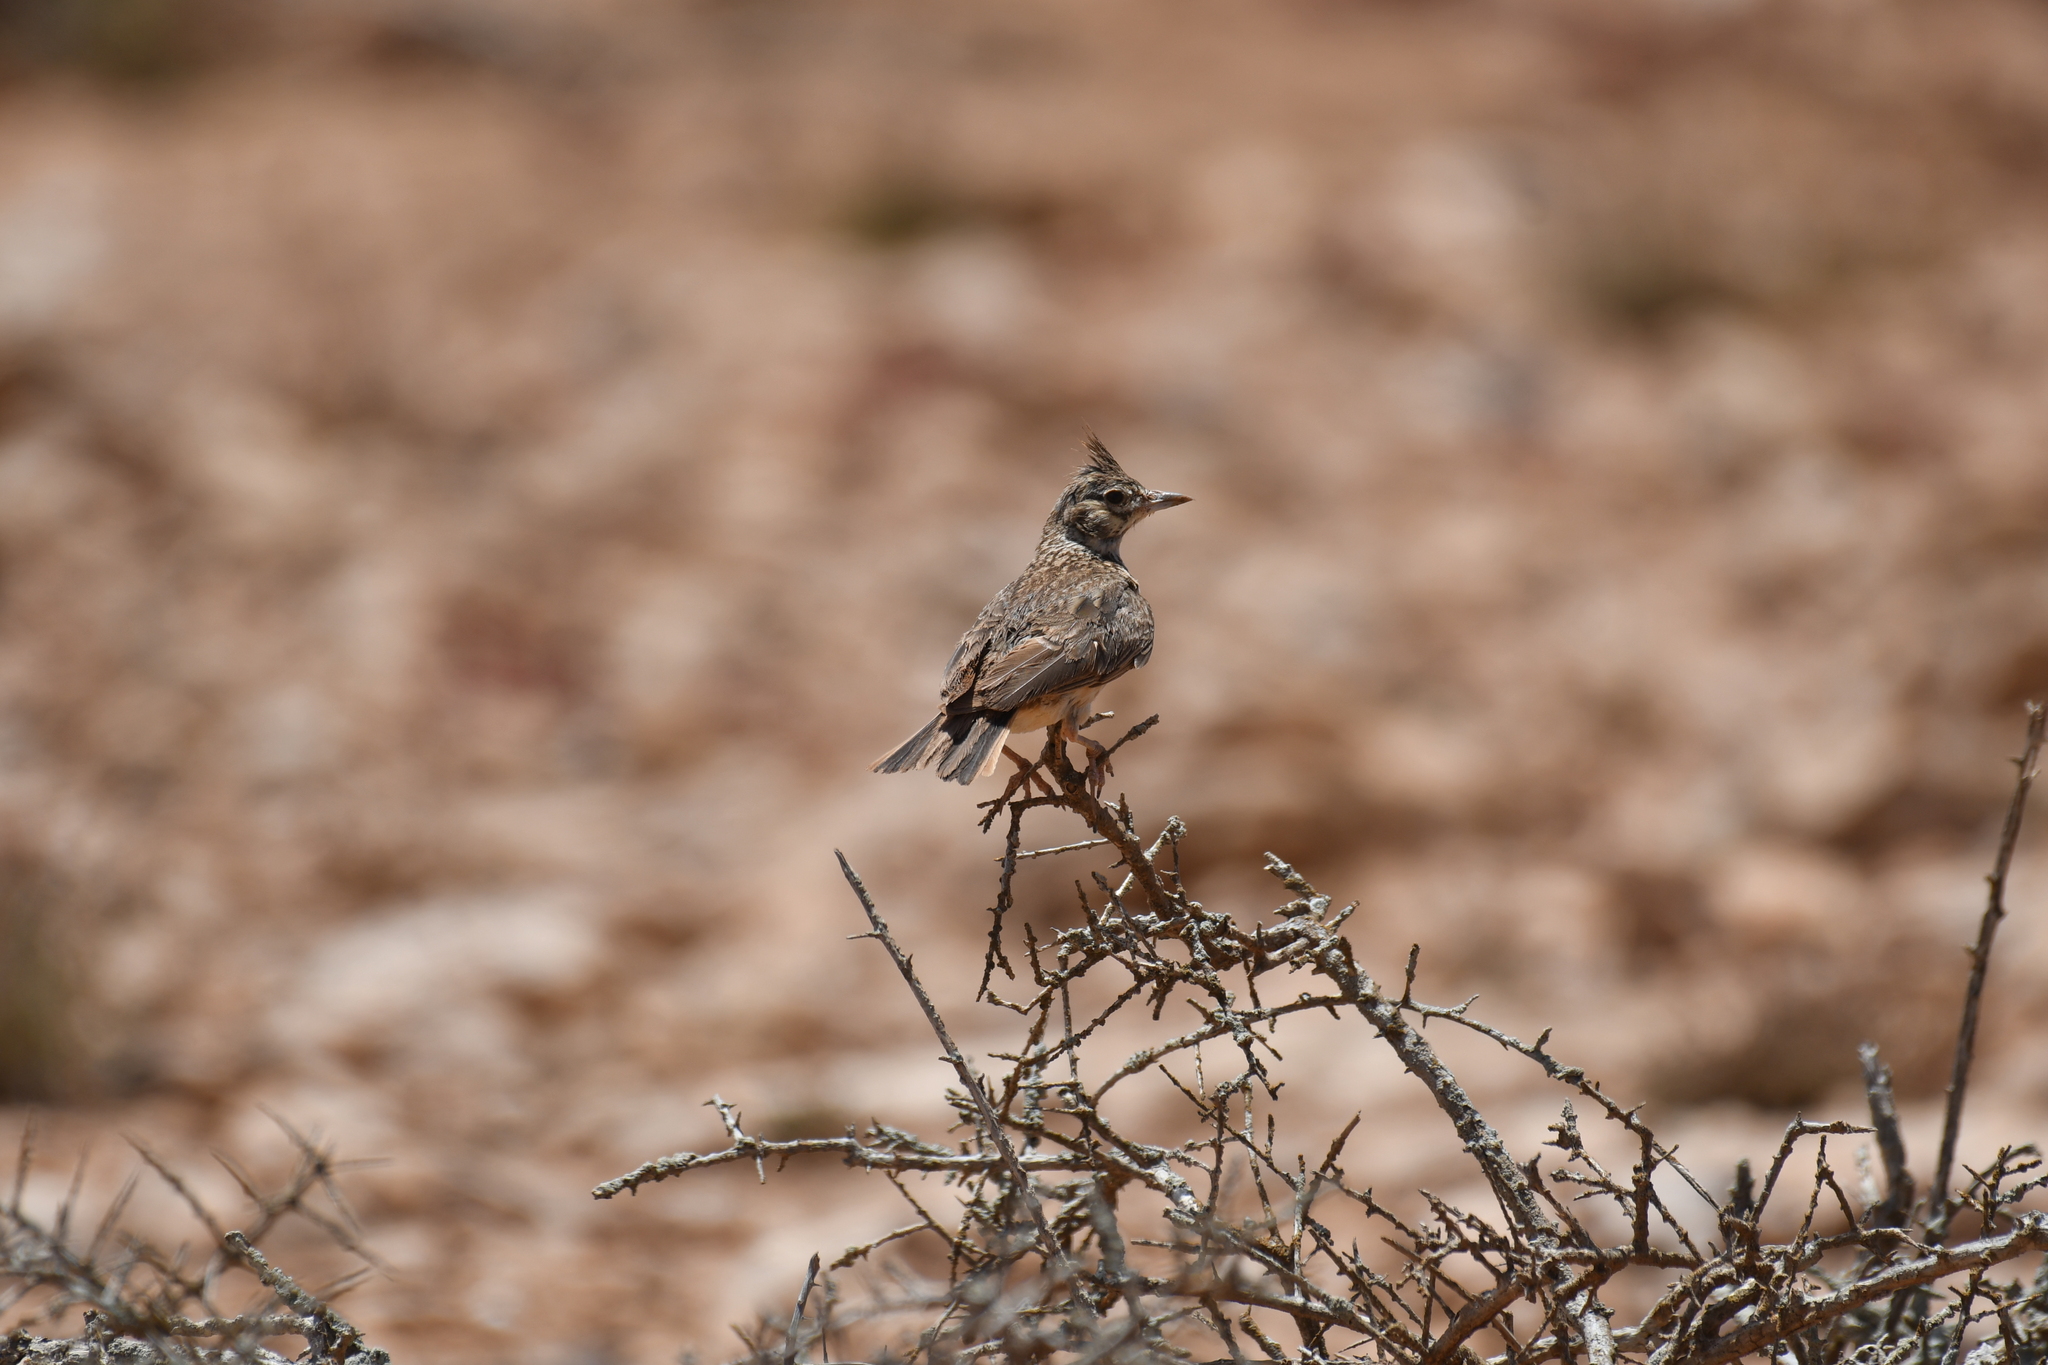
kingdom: Animalia
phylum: Chordata
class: Aves
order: Passeriformes
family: Alaudidae
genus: Galerida
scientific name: Galerida theklae
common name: Thekla lark
